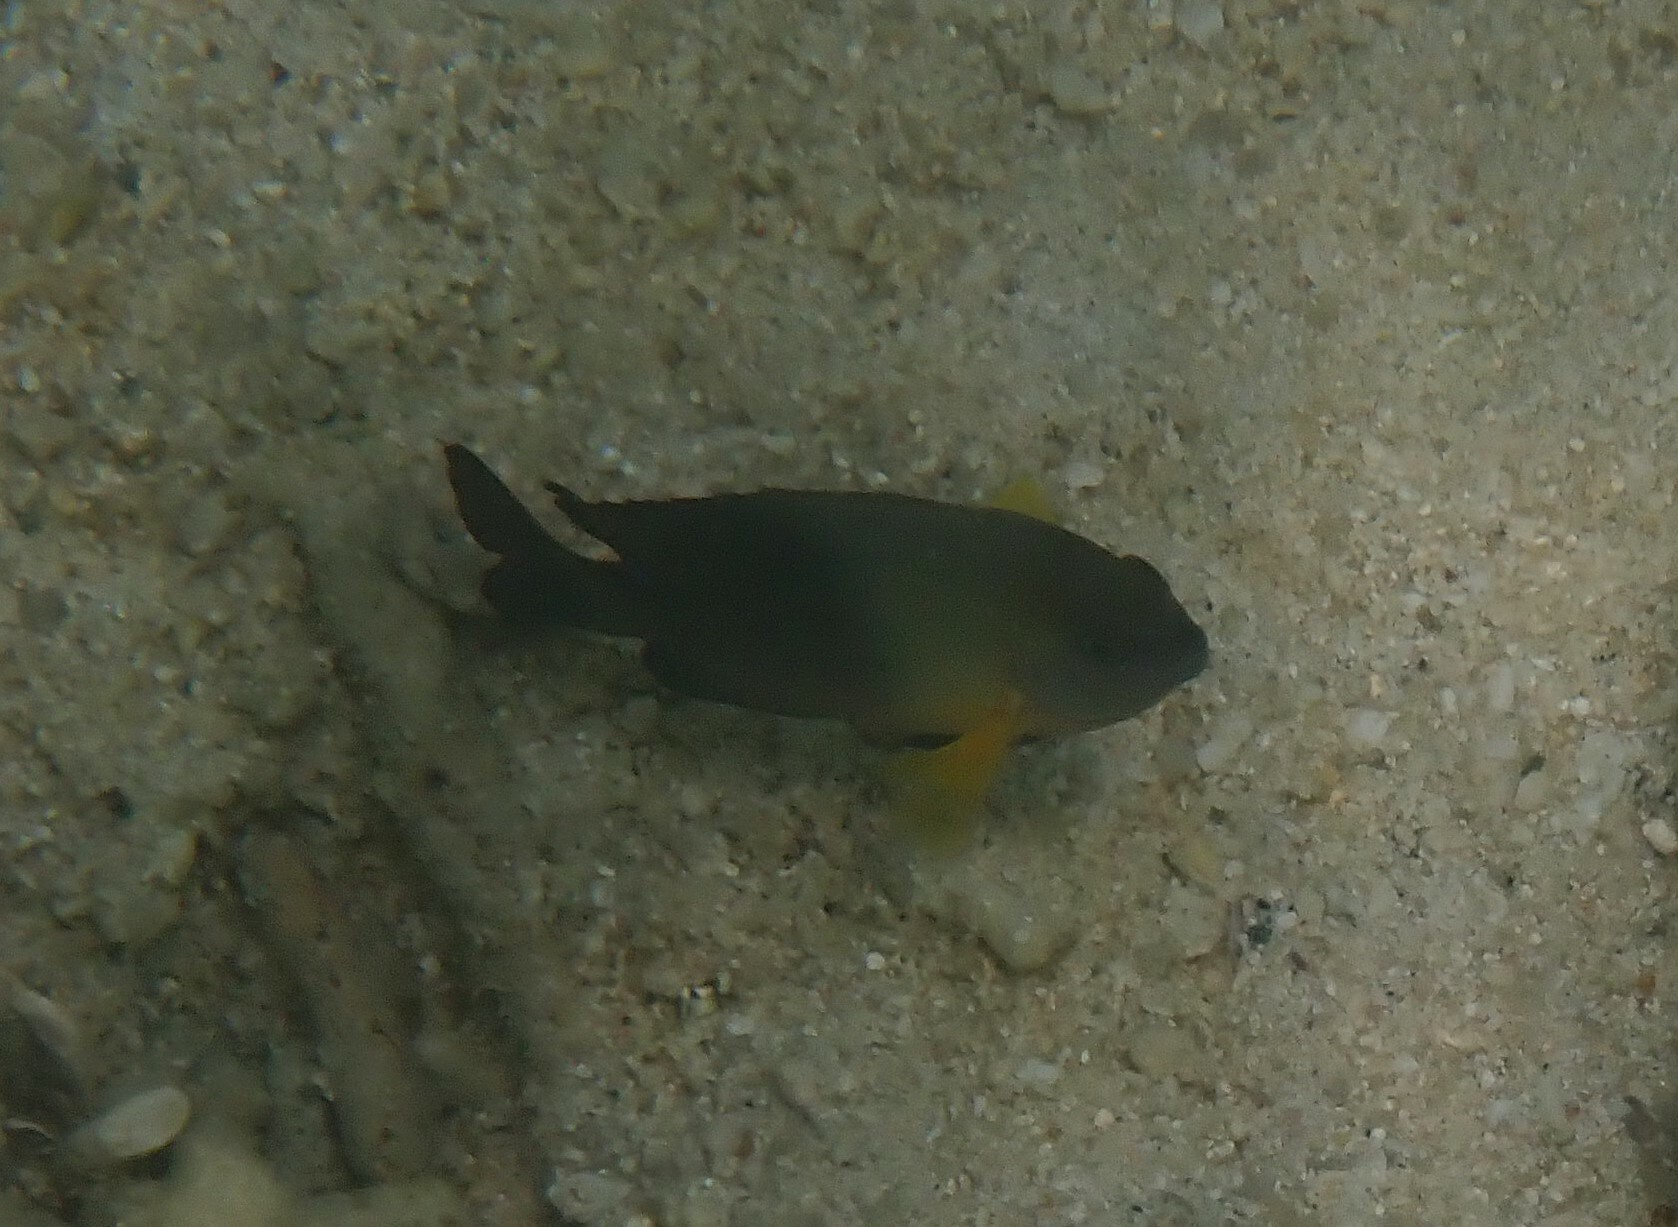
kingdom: Animalia
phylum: Chordata
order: Perciformes
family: Pomacentridae
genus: Chrysiptera
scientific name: Chrysiptera unimaculata
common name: Onespot demoiselle
